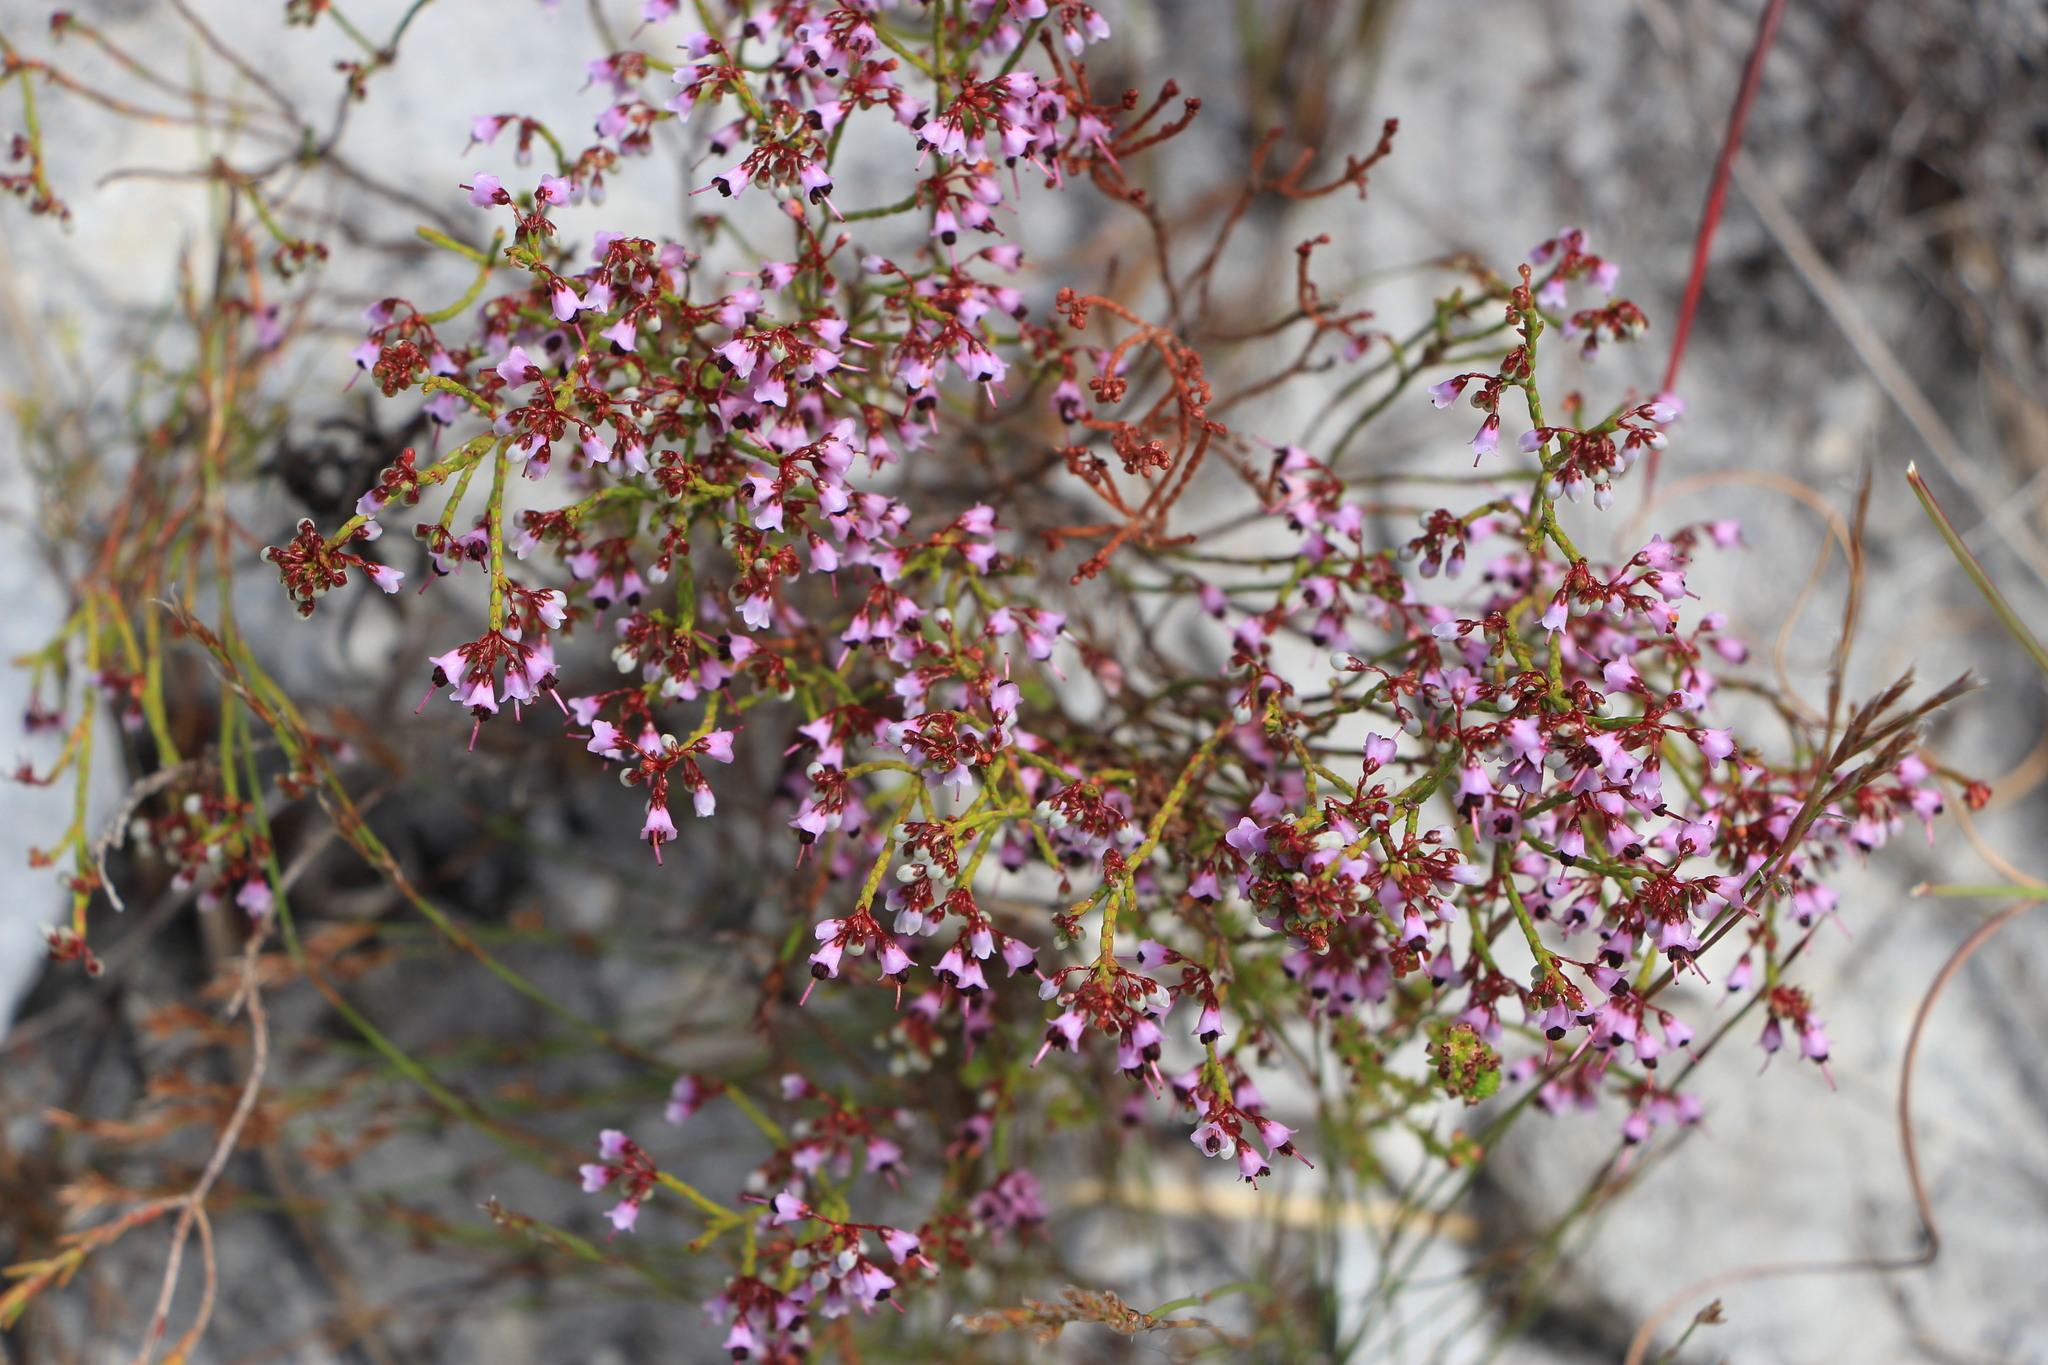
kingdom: Plantae
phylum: Tracheophyta
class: Magnoliopsida
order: Ericales
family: Ericaceae
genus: Erica
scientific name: Erica hermani
